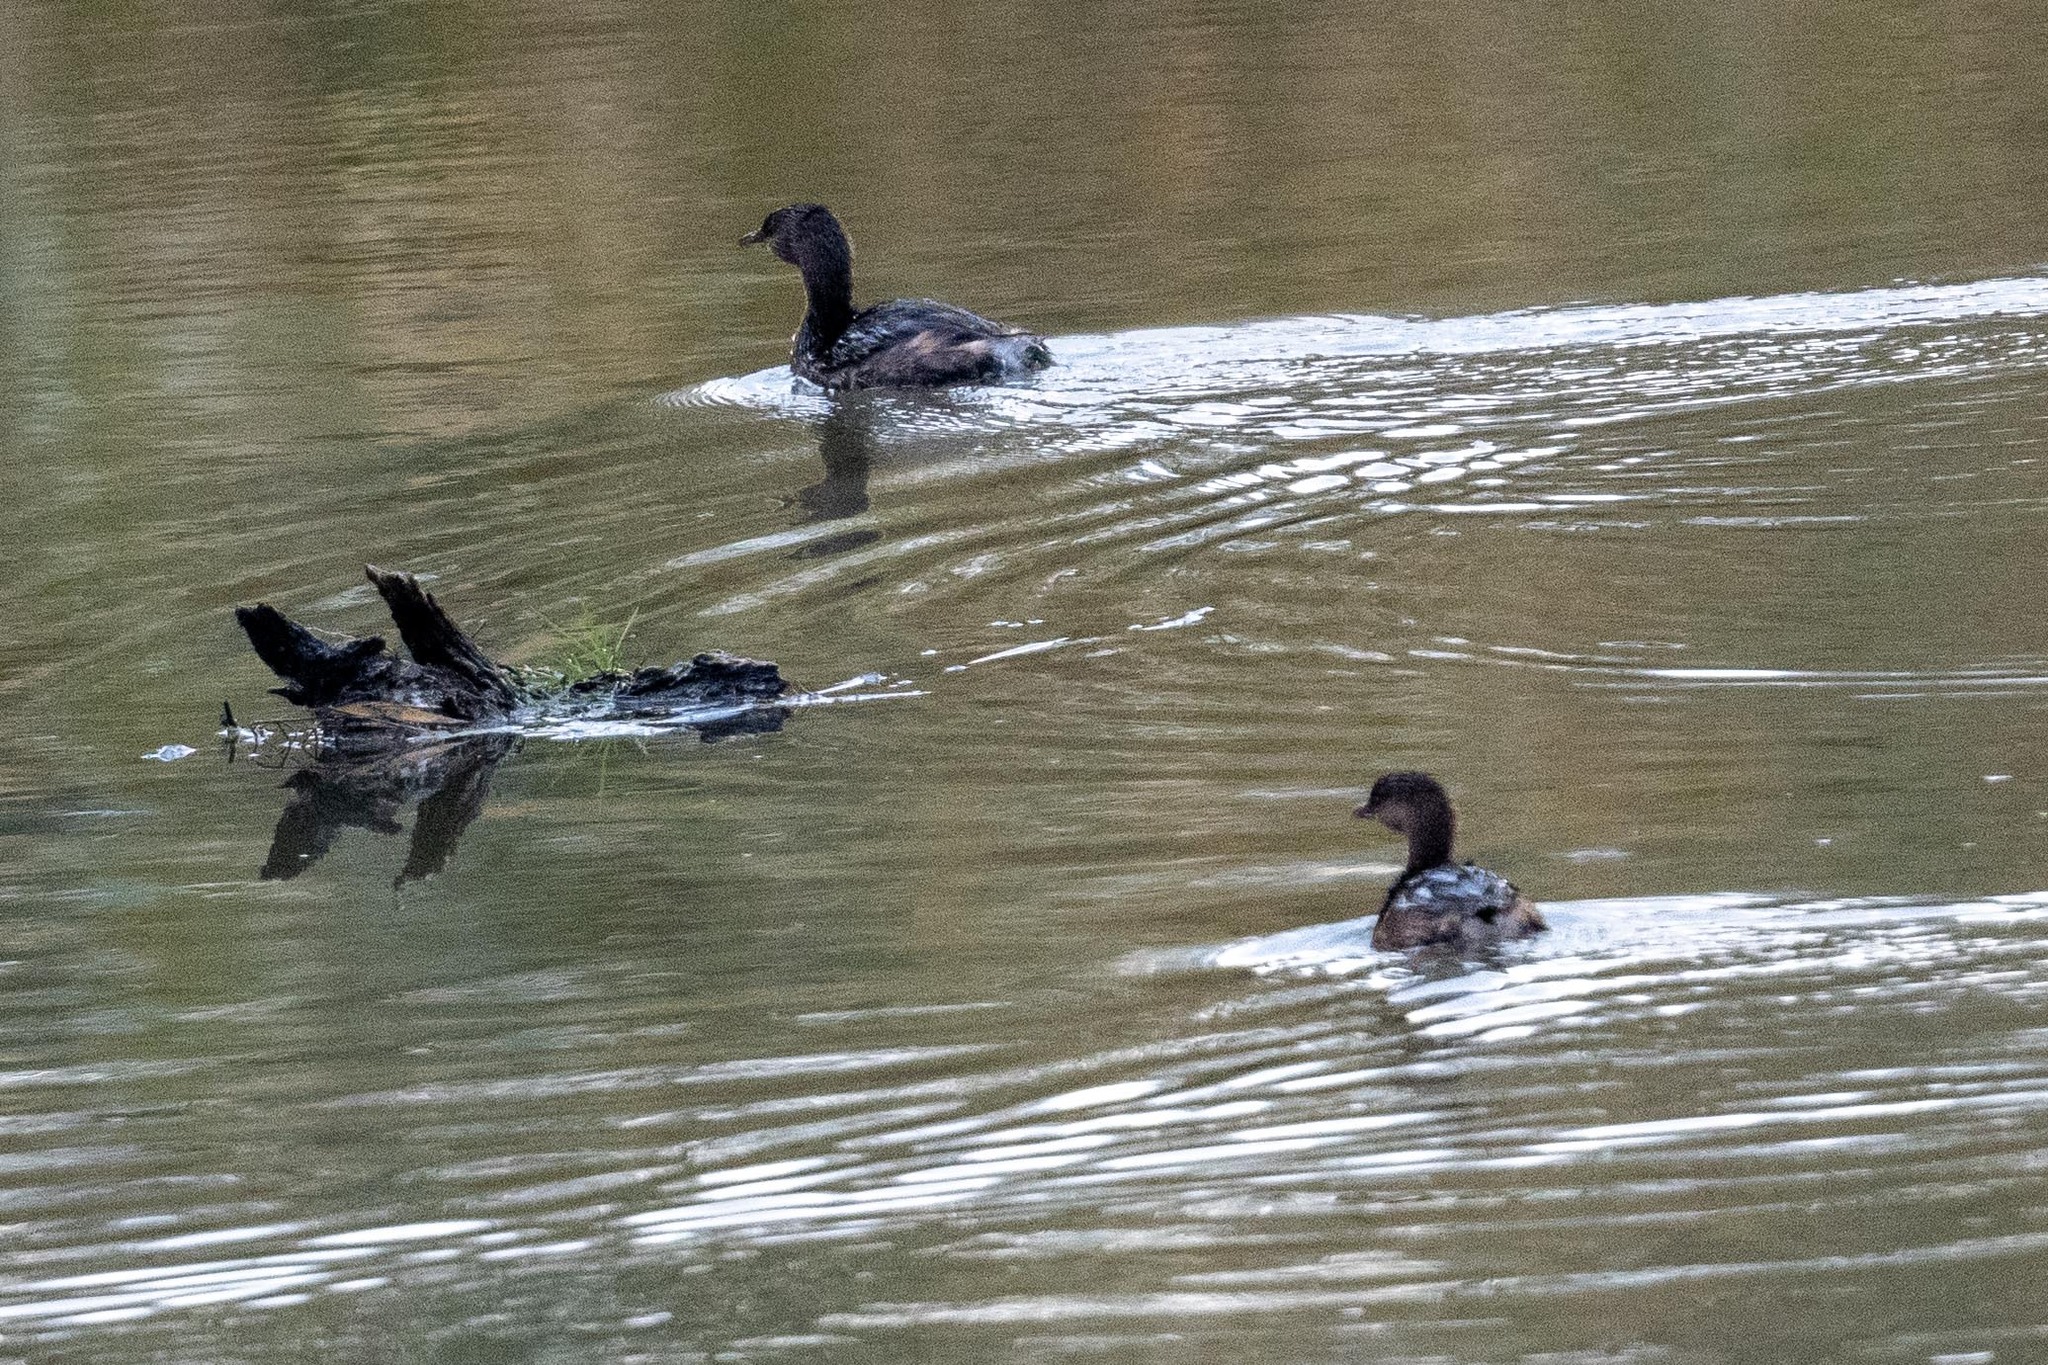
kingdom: Animalia
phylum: Chordata
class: Aves
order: Podicipediformes
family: Podicipedidae
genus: Podilymbus
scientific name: Podilymbus podiceps
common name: Pied-billed grebe
